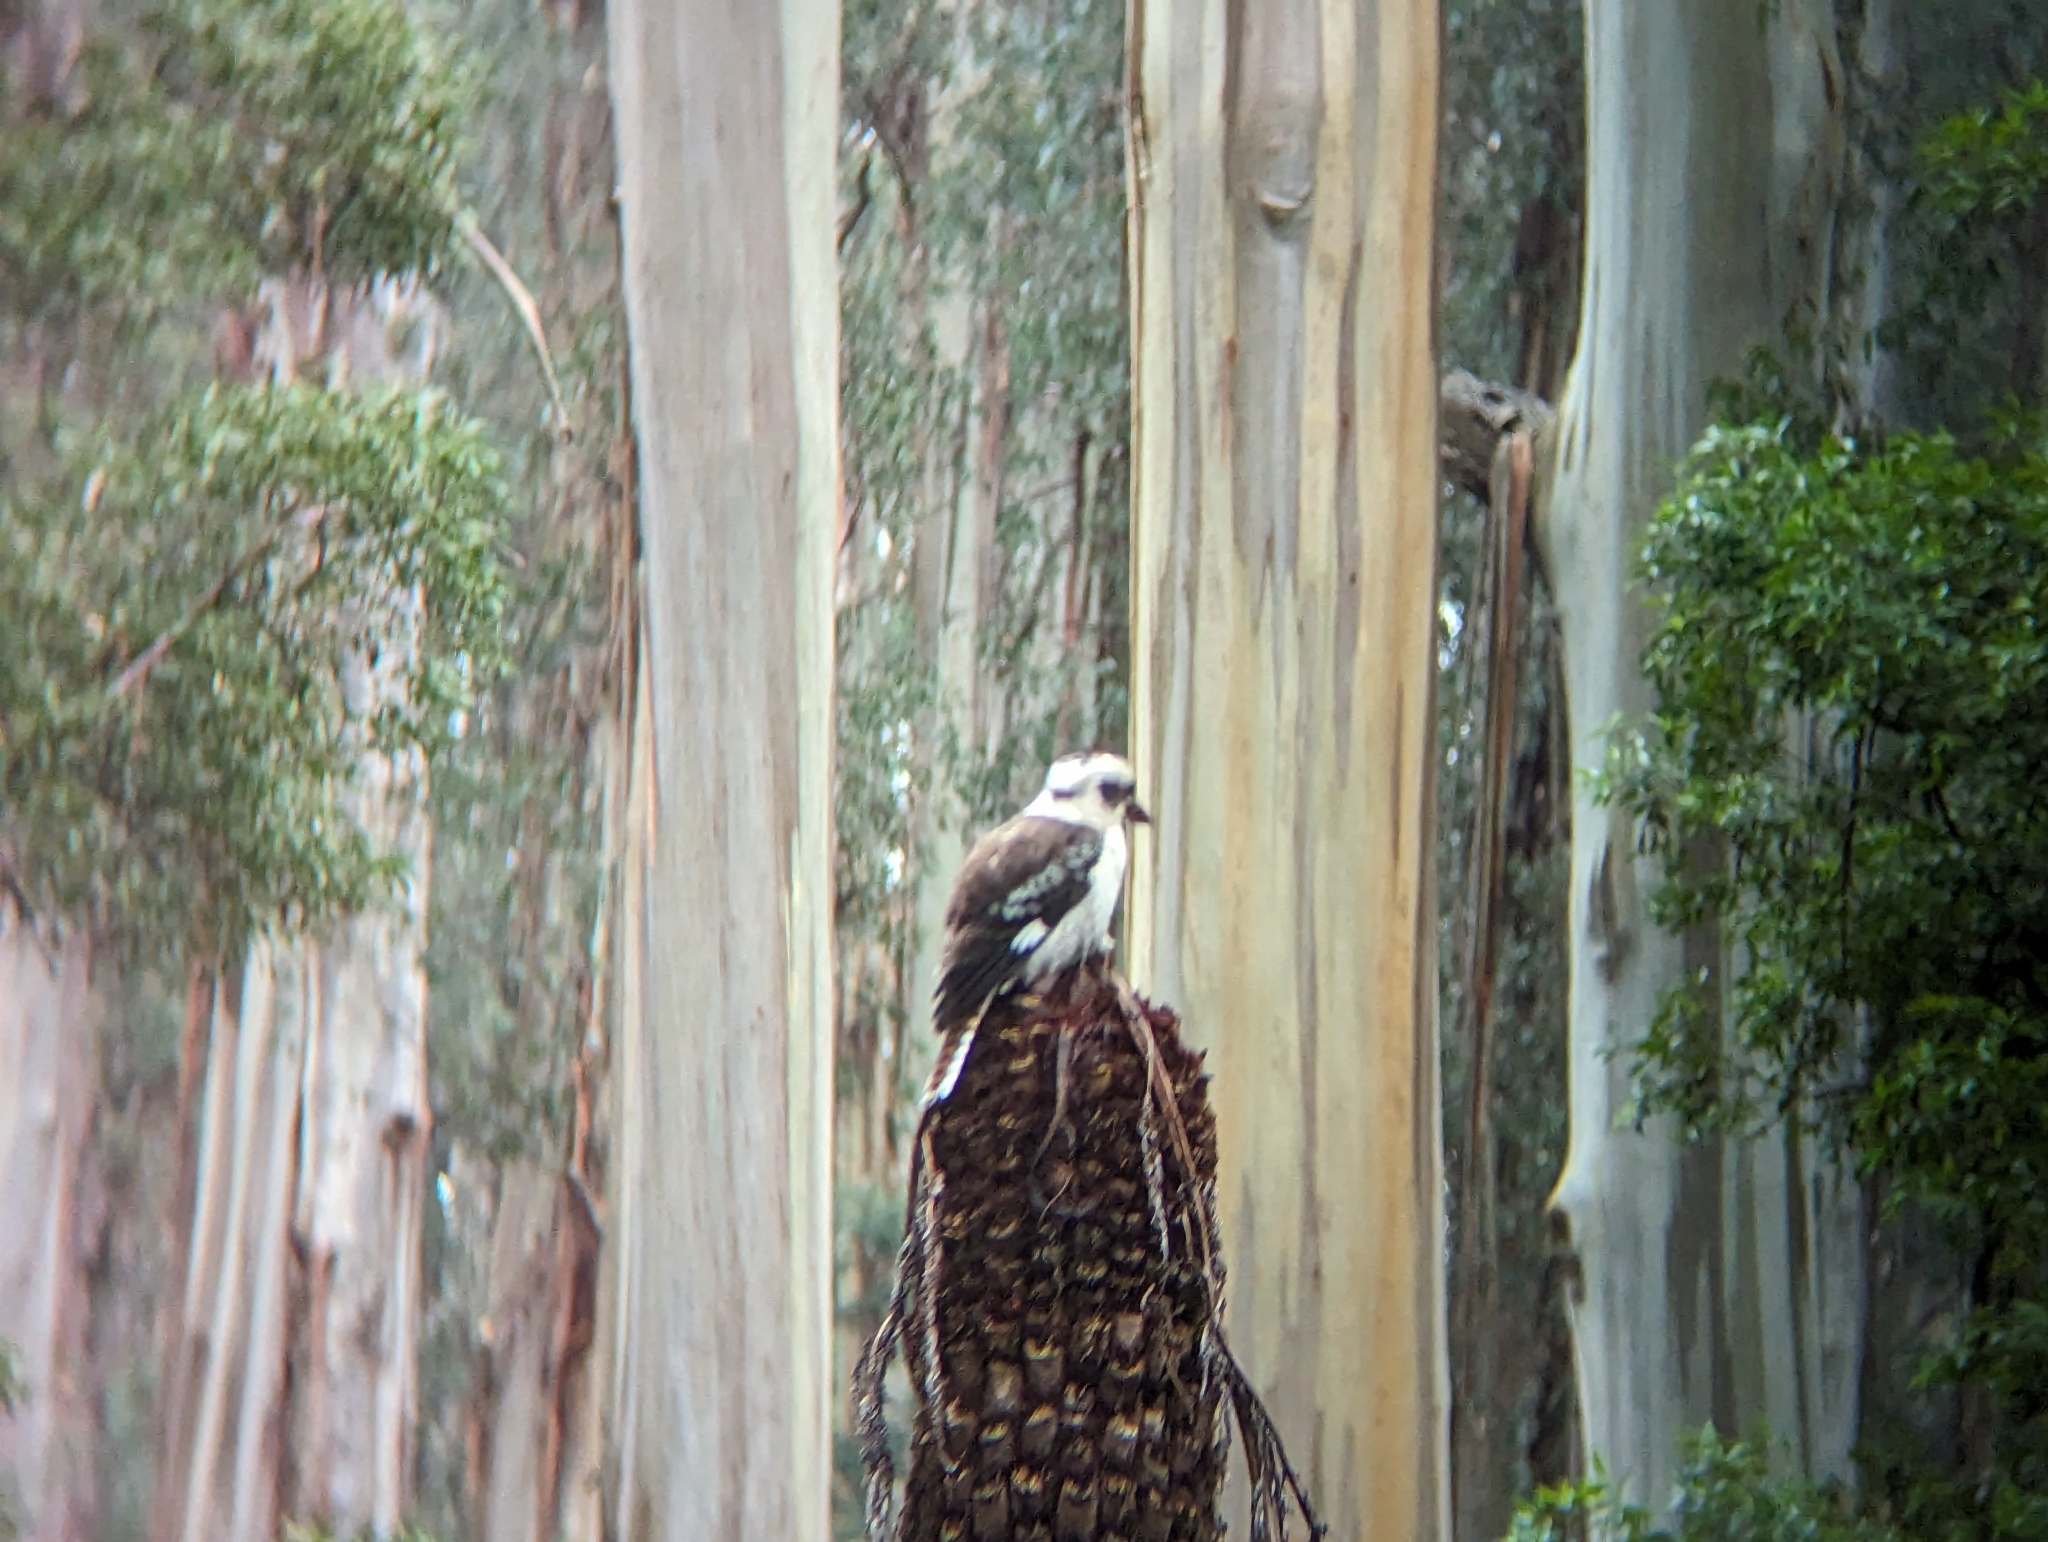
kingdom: Animalia
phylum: Chordata
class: Aves
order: Coraciiformes
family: Alcedinidae
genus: Dacelo
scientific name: Dacelo novaeguineae
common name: Laughing kookaburra
